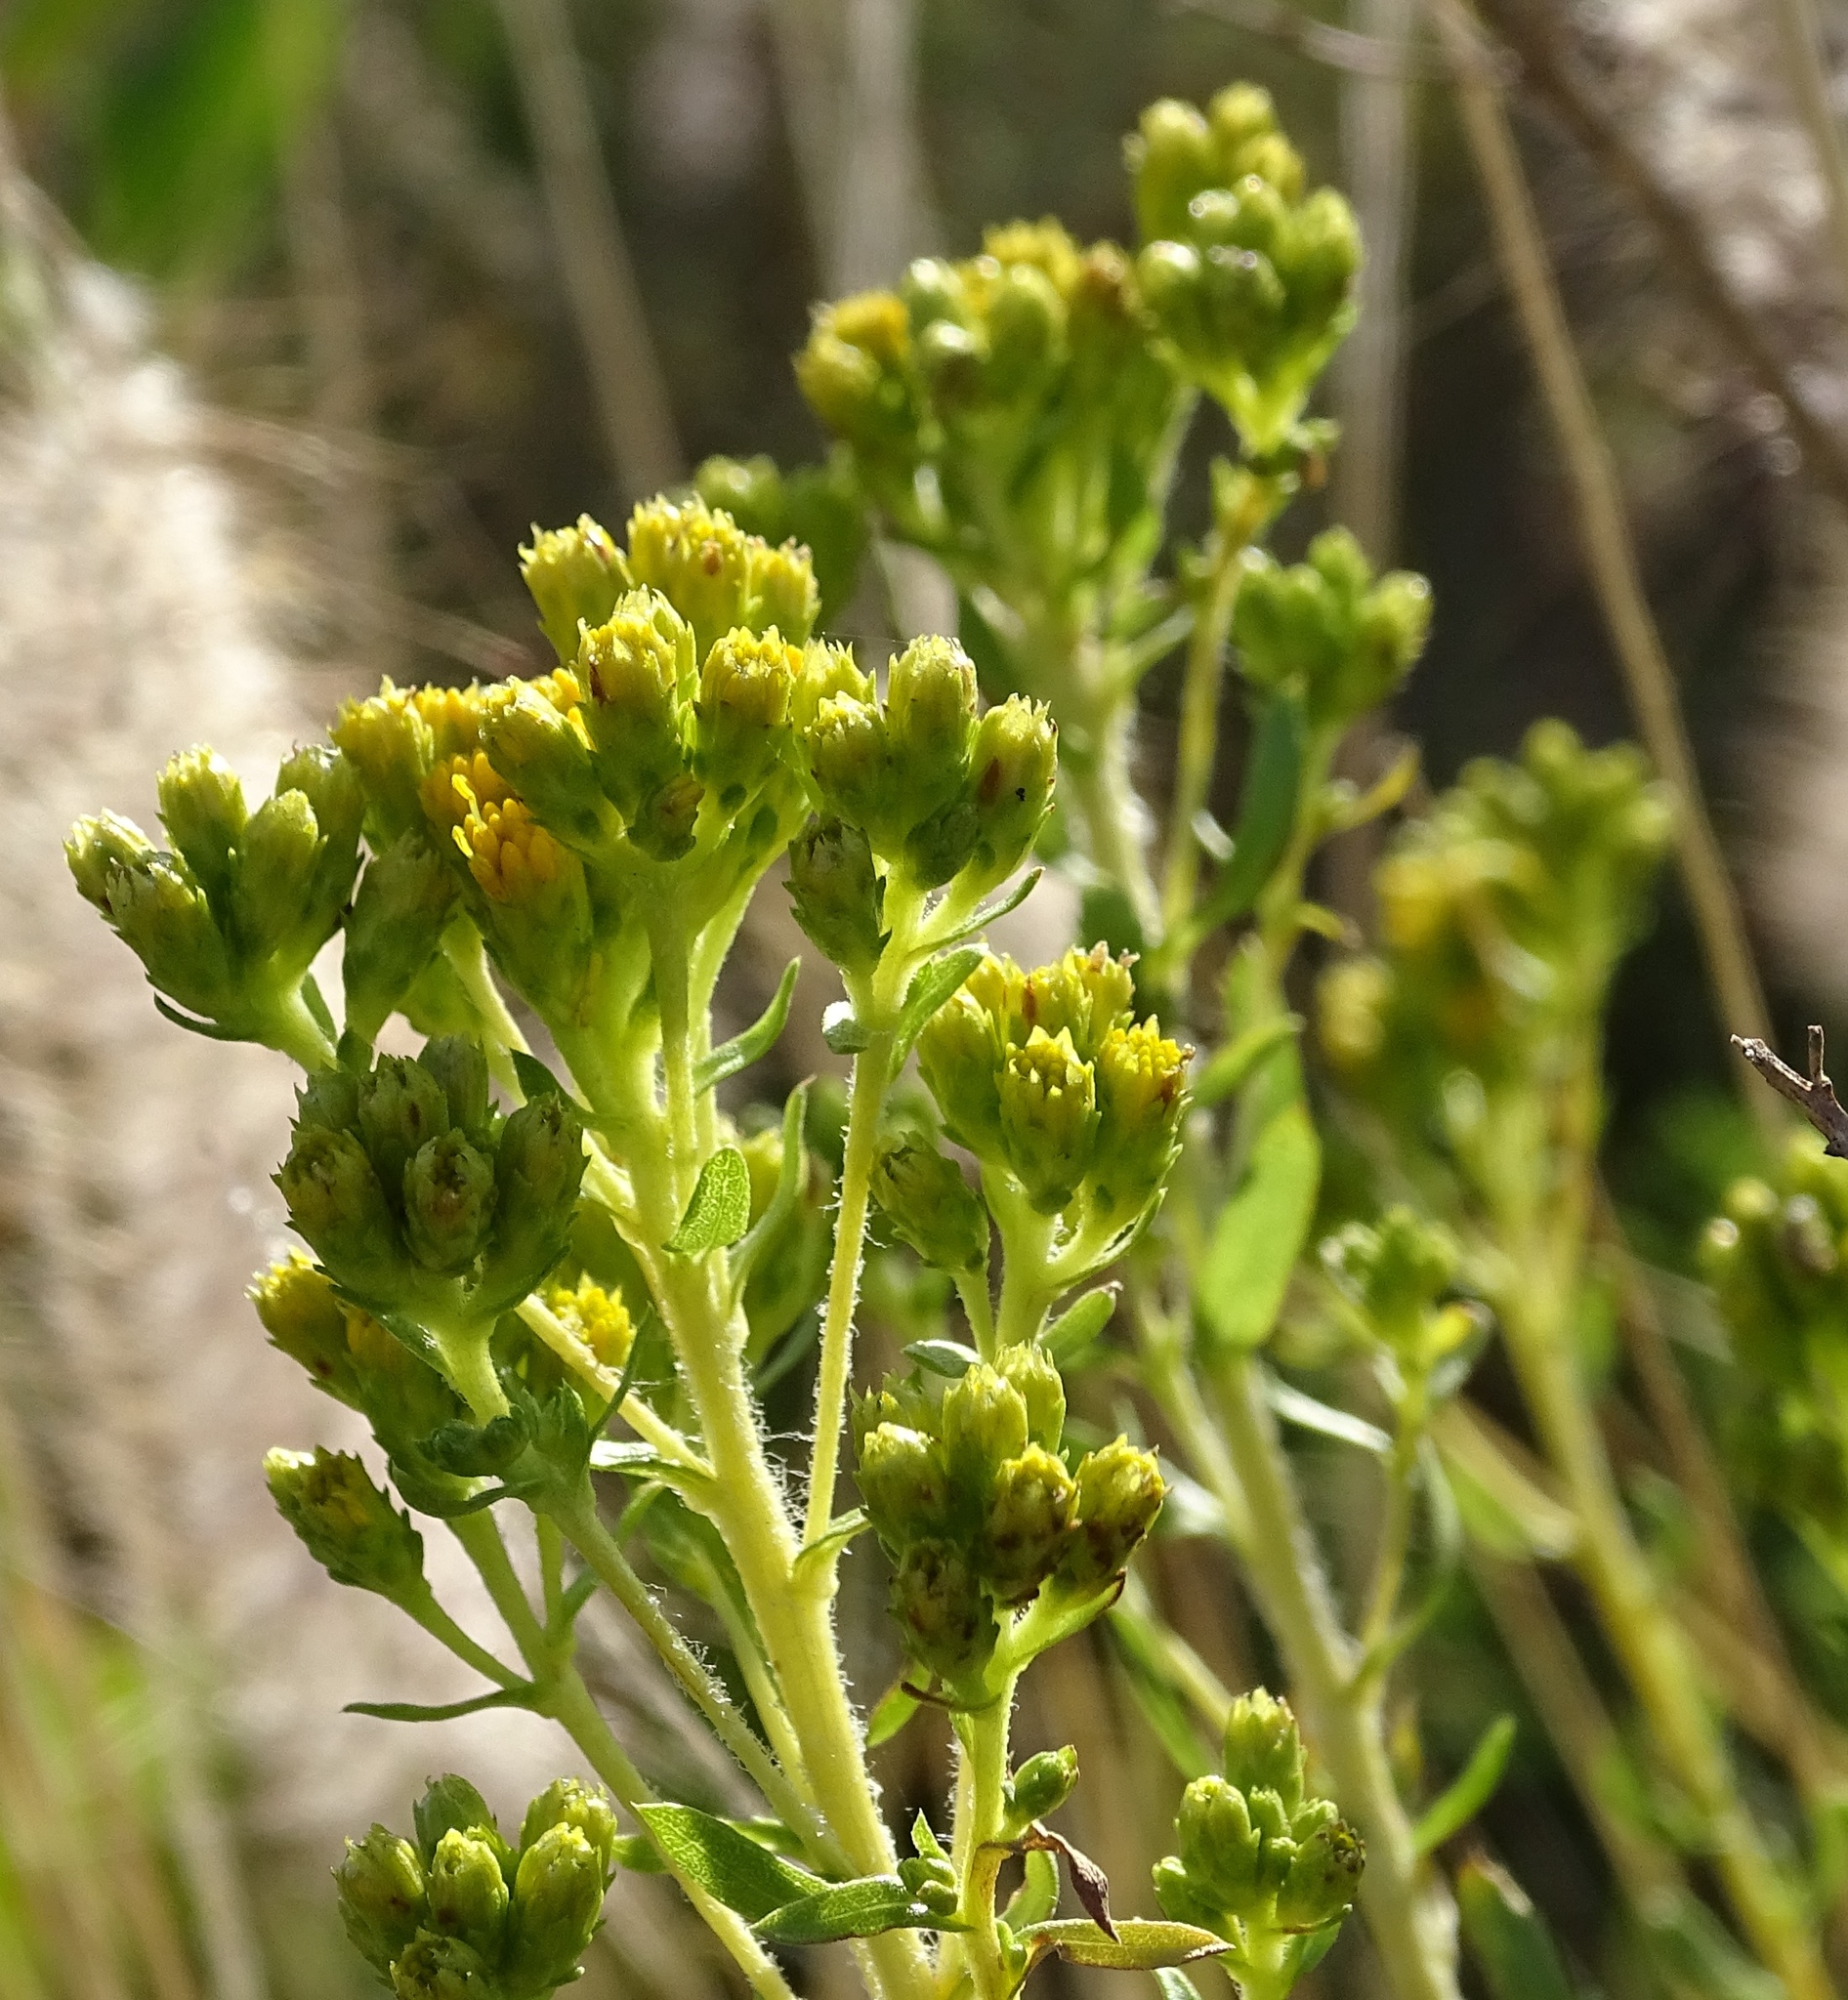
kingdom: Plantae
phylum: Tracheophyta
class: Magnoliopsida
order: Asterales
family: Asteraceae
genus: Isocoma
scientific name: Isocoma menziesii
